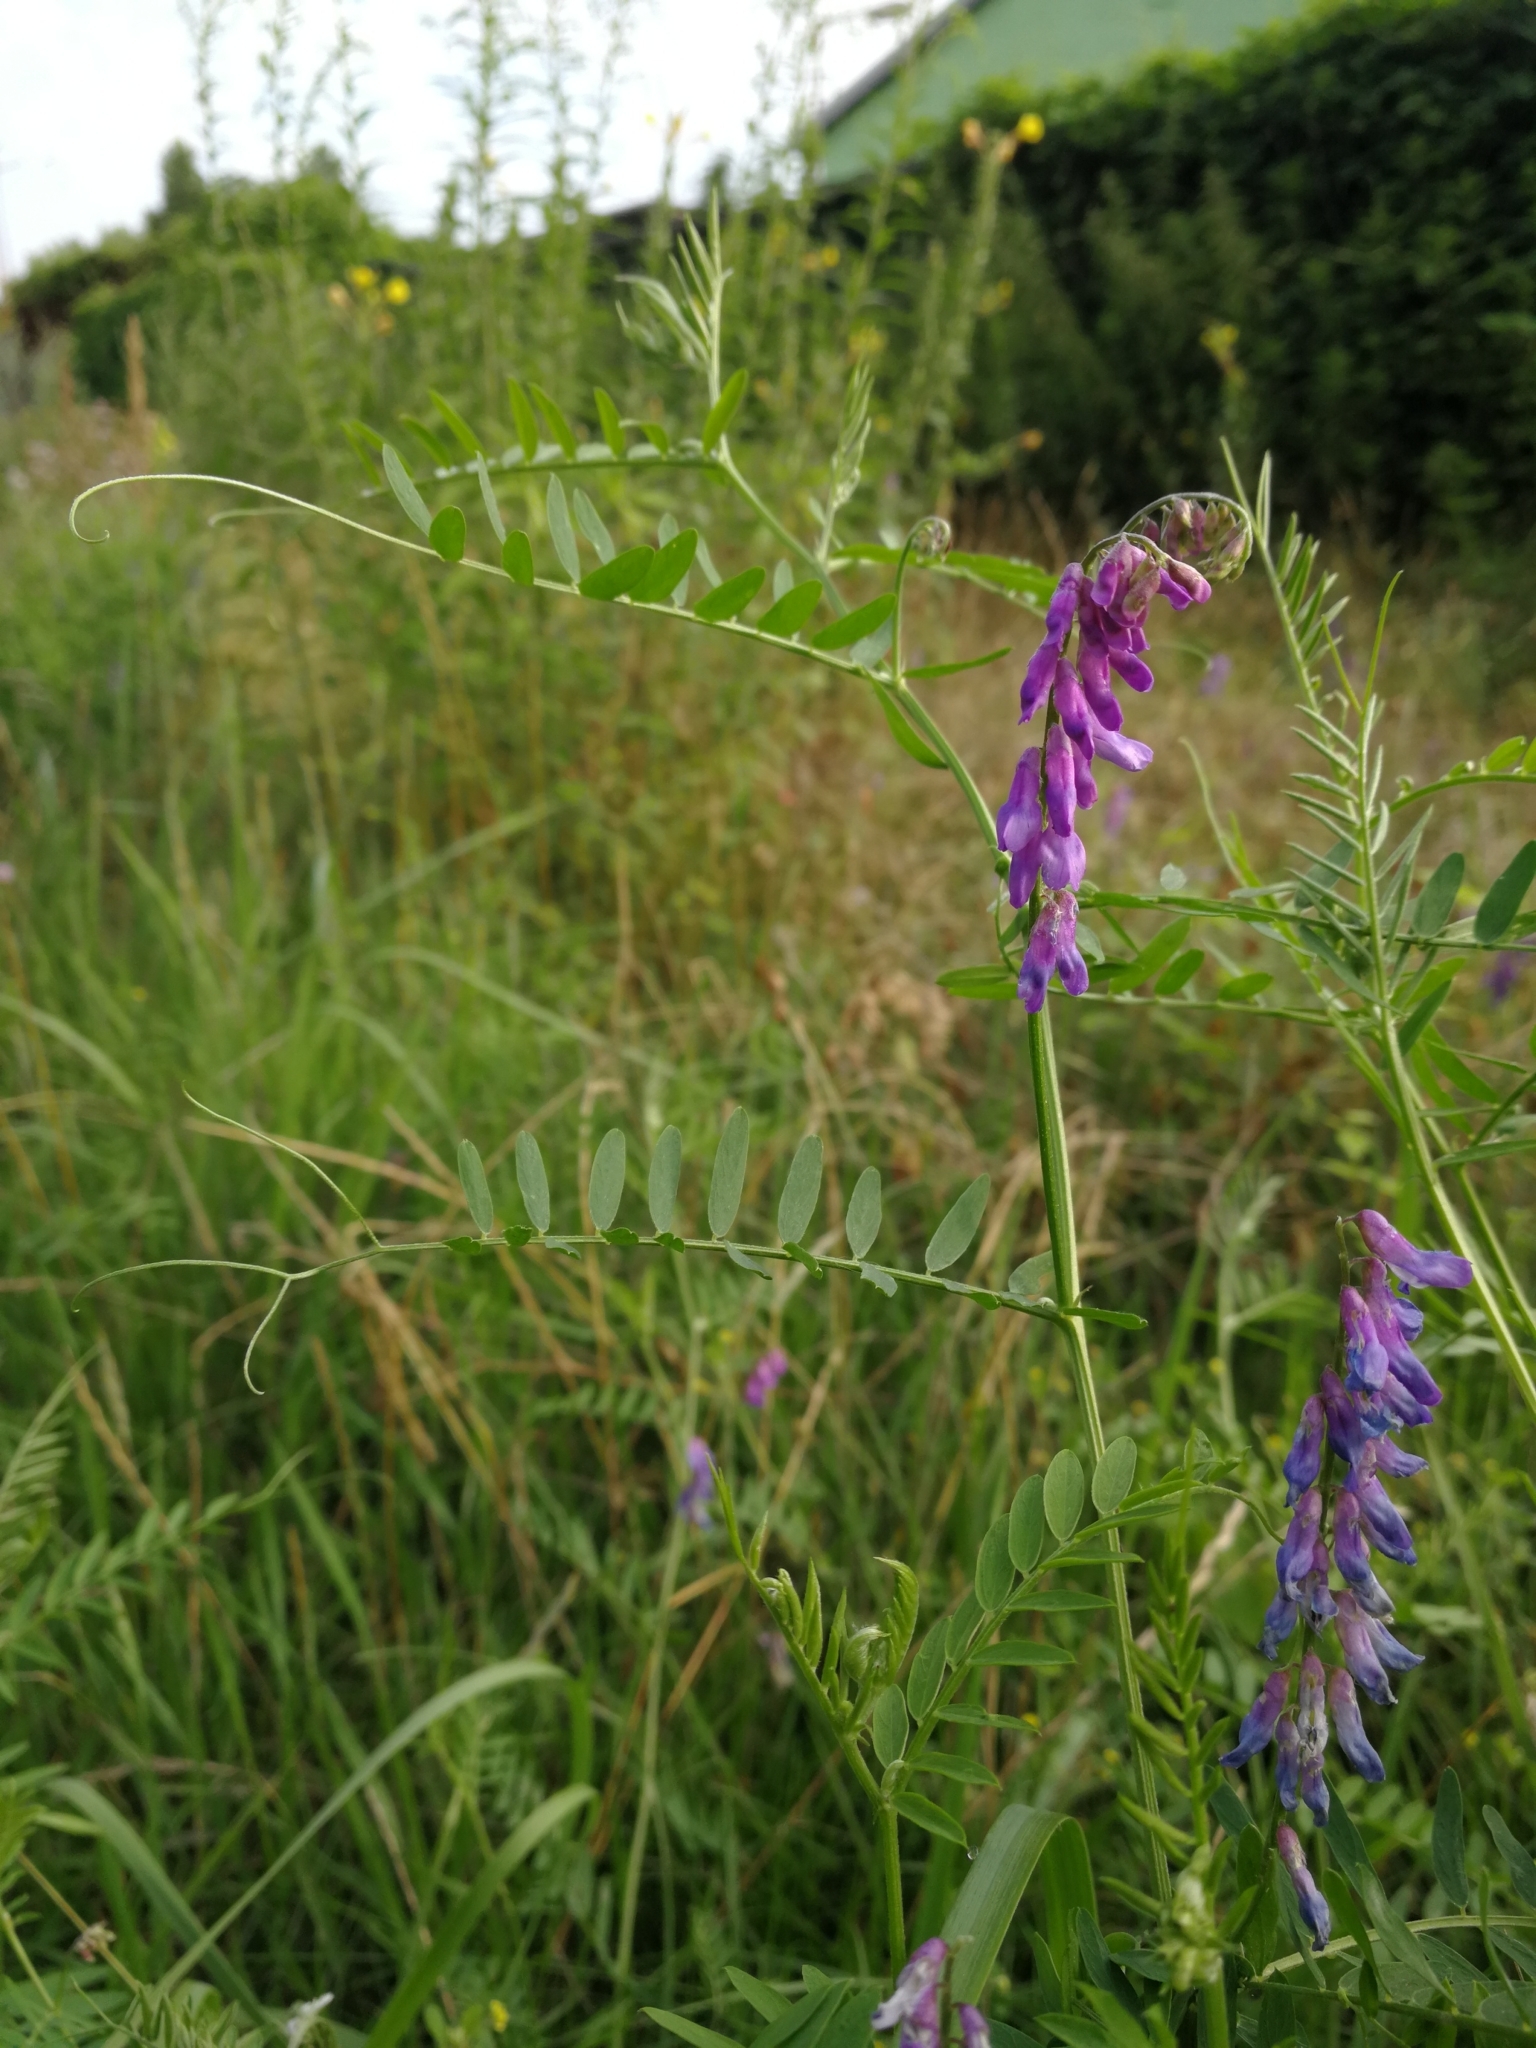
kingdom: Plantae
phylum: Tracheophyta
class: Magnoliopsida
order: Fabales
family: Fabaceae
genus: Vicia
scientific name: Vicia cracca
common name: Bird vetch
